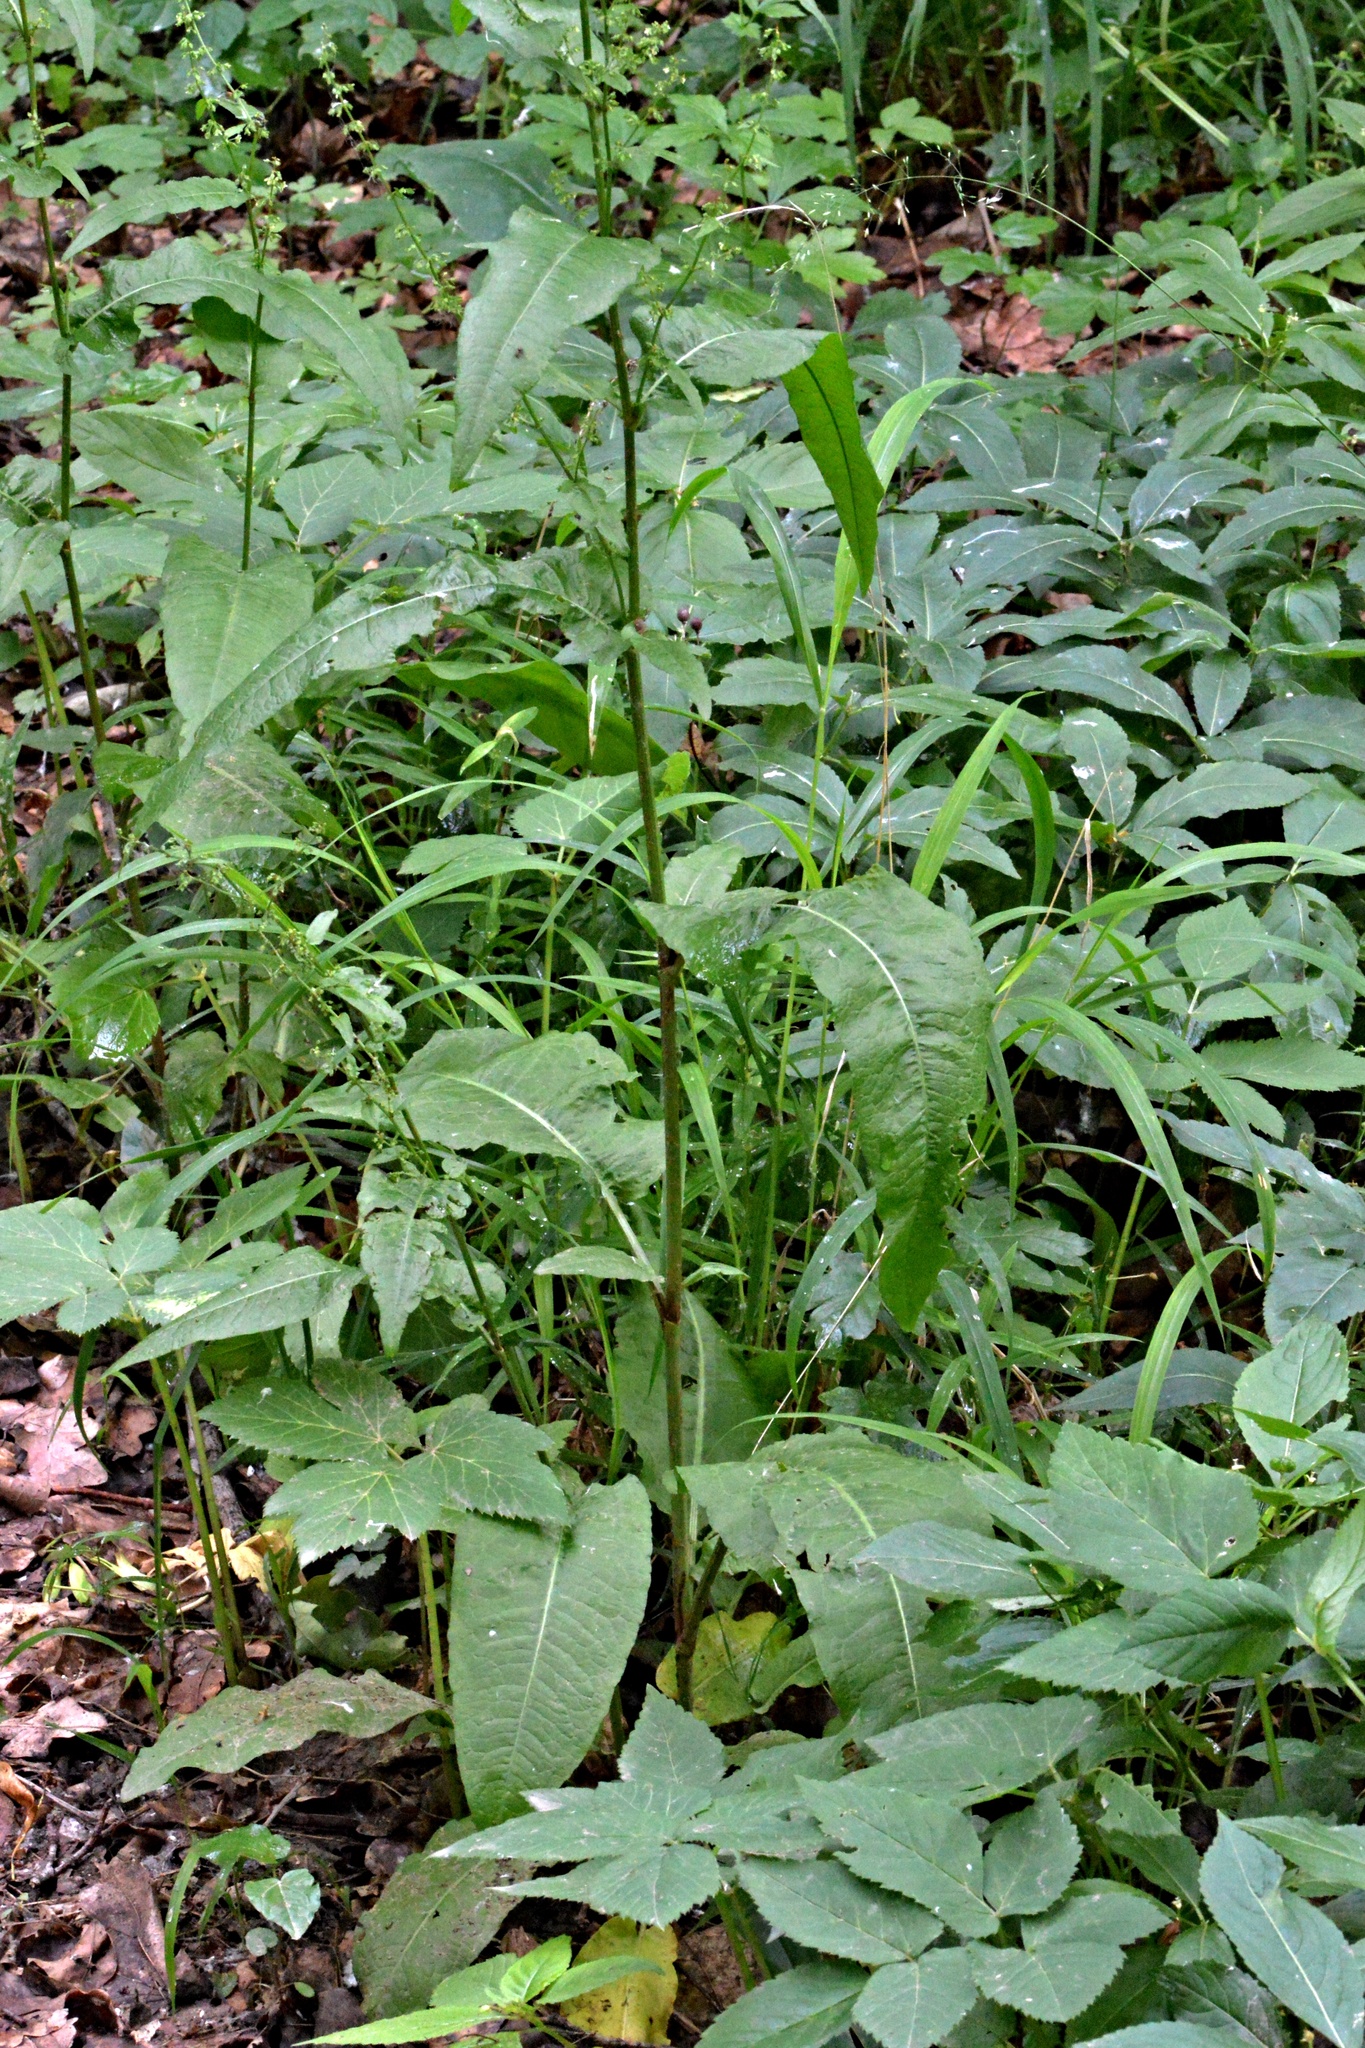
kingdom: Plantae
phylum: Tracheophyta
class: Magnoliopsida
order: Caryophyllales
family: Polygonaceae
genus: Rumex
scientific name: Rumex sanguineus
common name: Wood dock
